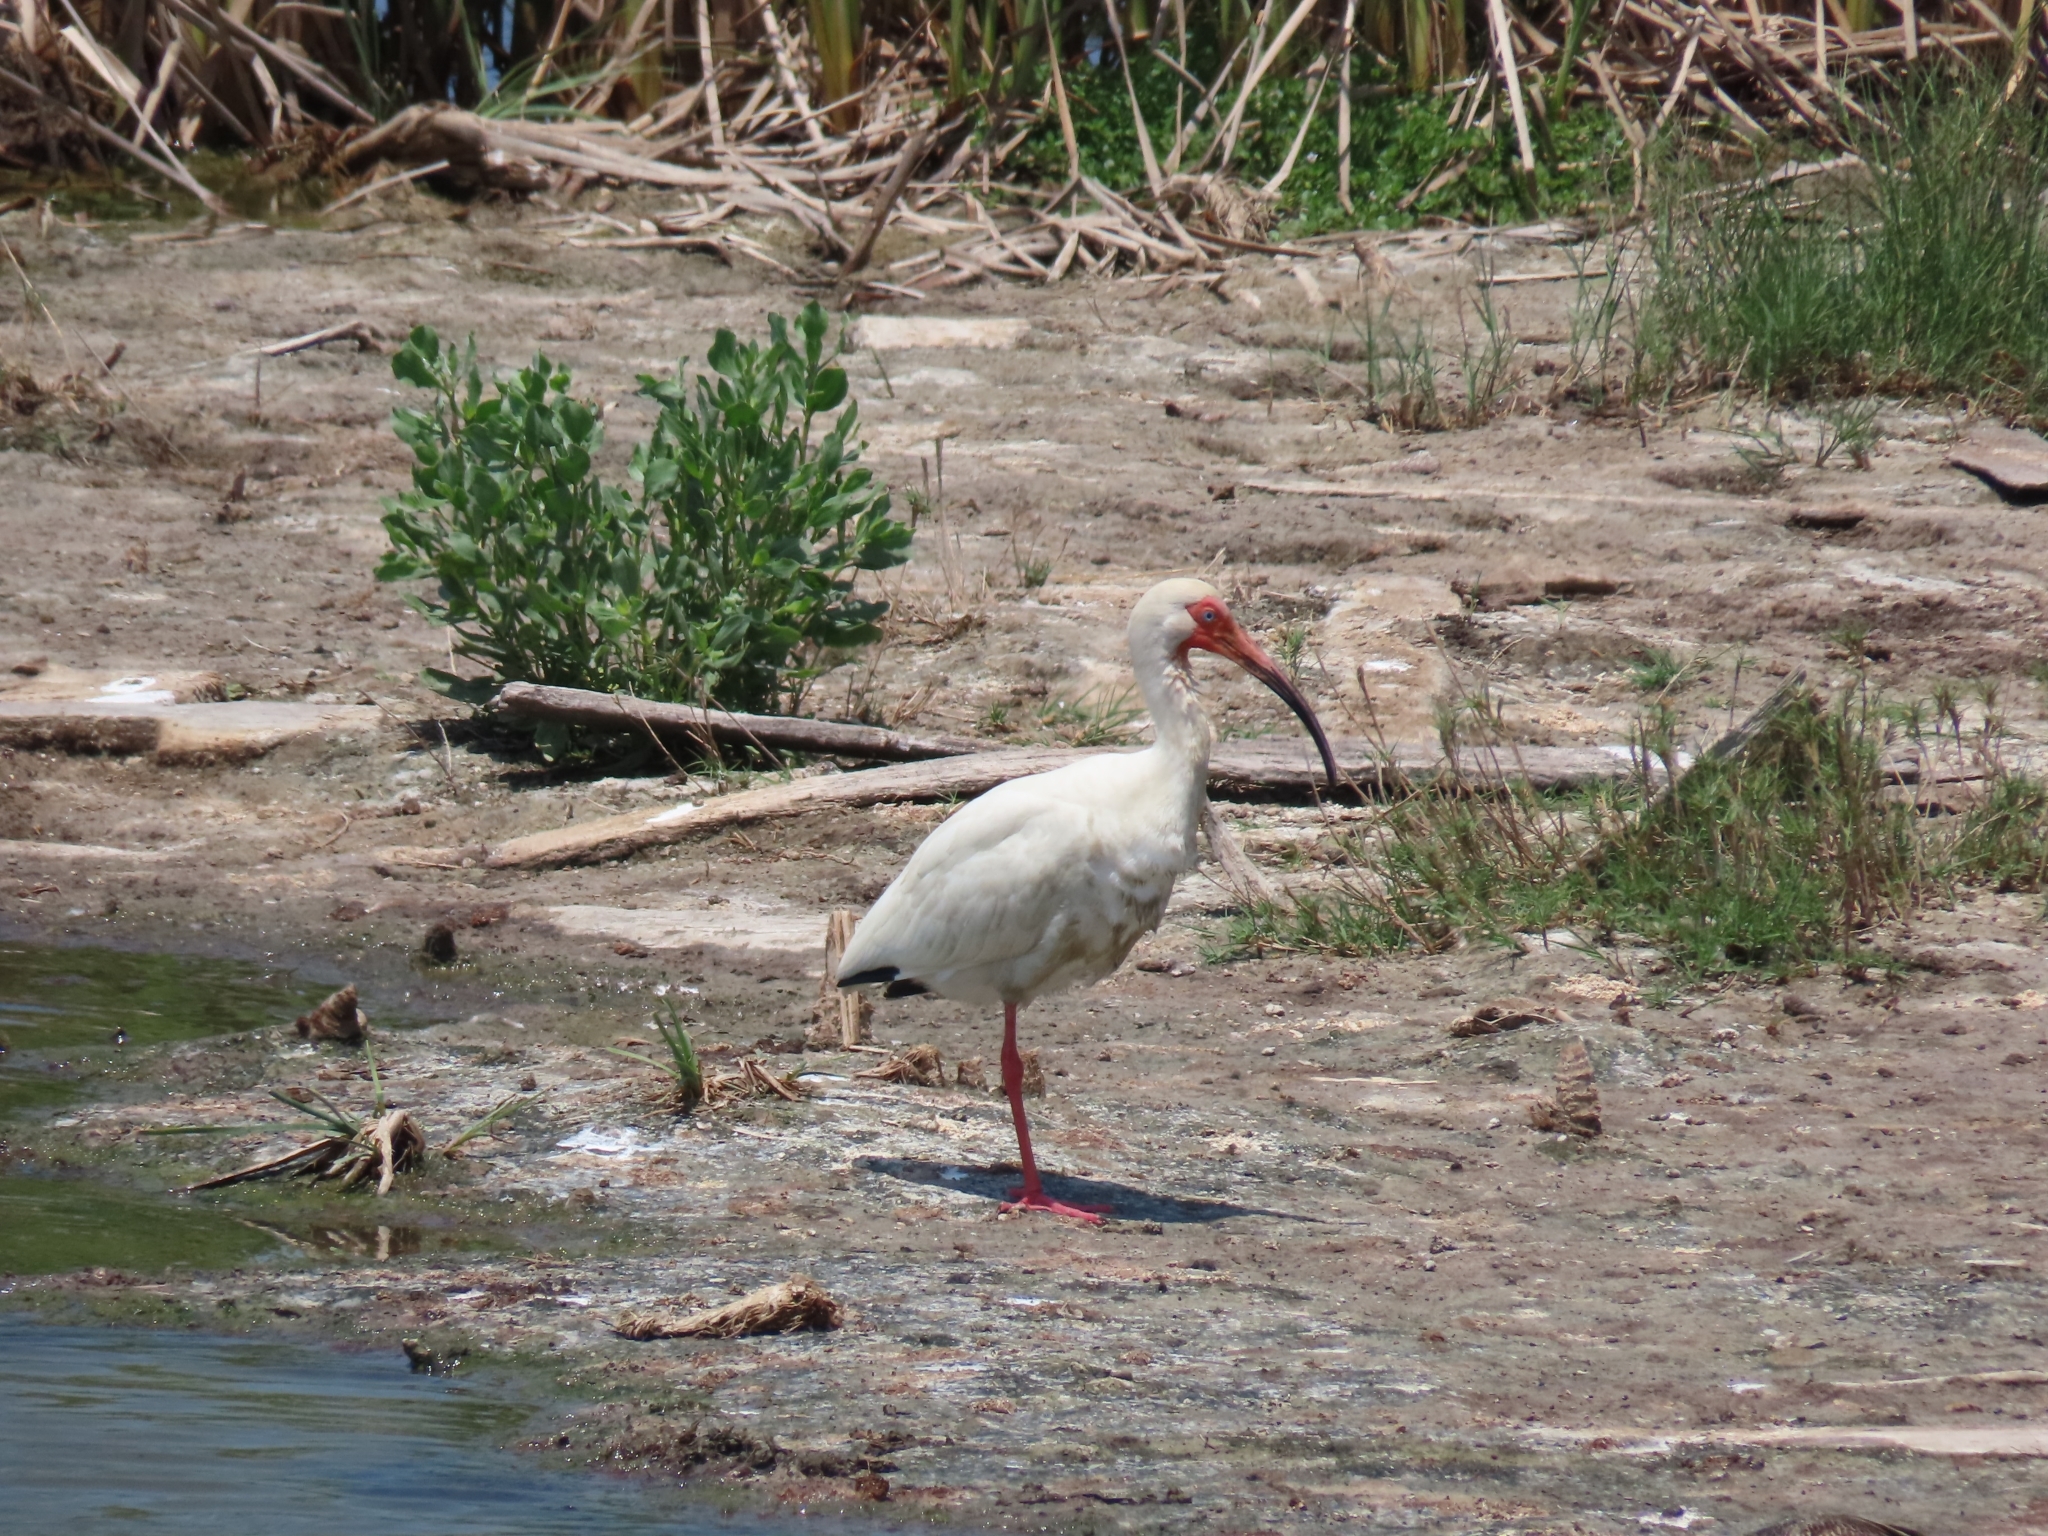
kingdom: Animalia
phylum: Chordata
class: Aves
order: Pelecaniformes
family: Threskiornithidae
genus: Eudocimus
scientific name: Eudocimus albus
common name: White ibis
